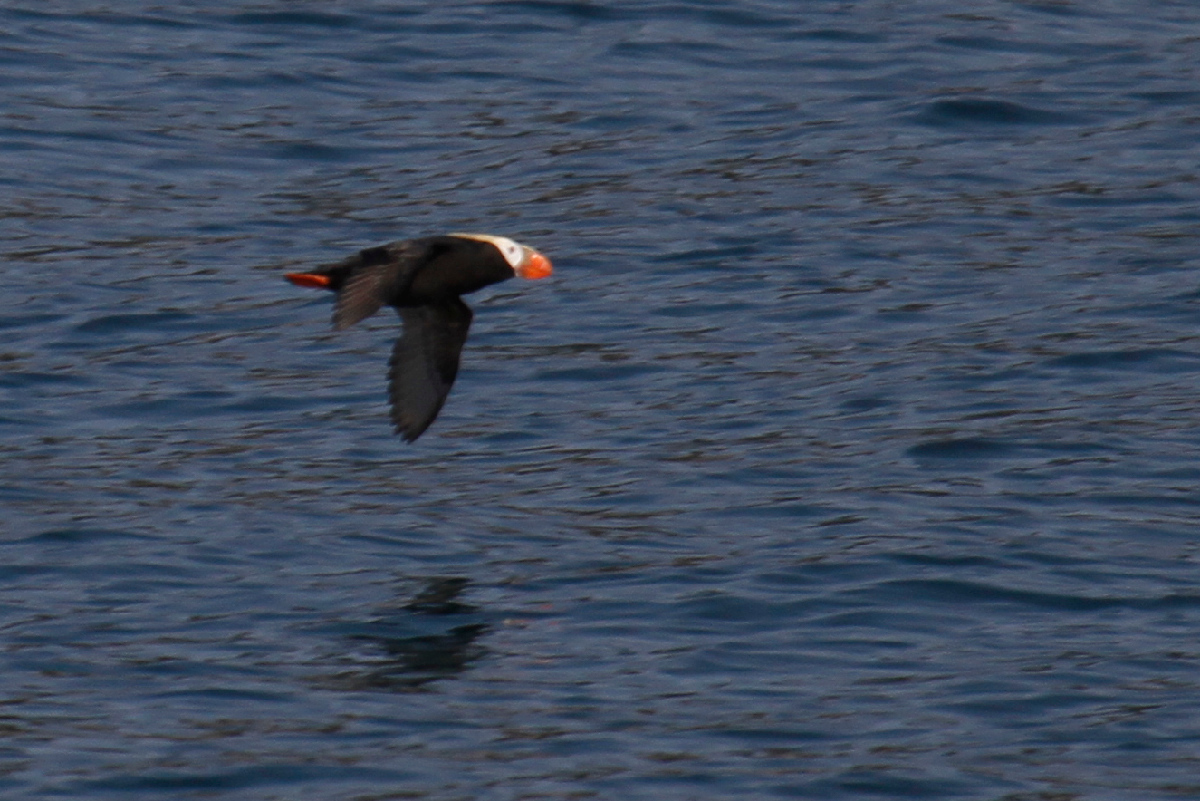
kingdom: Animalia
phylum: Chordata
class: Aves
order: Charadriiformes
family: Alcidae
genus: Fratercula
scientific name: Fratercula cirrhata
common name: Tufted puffin
